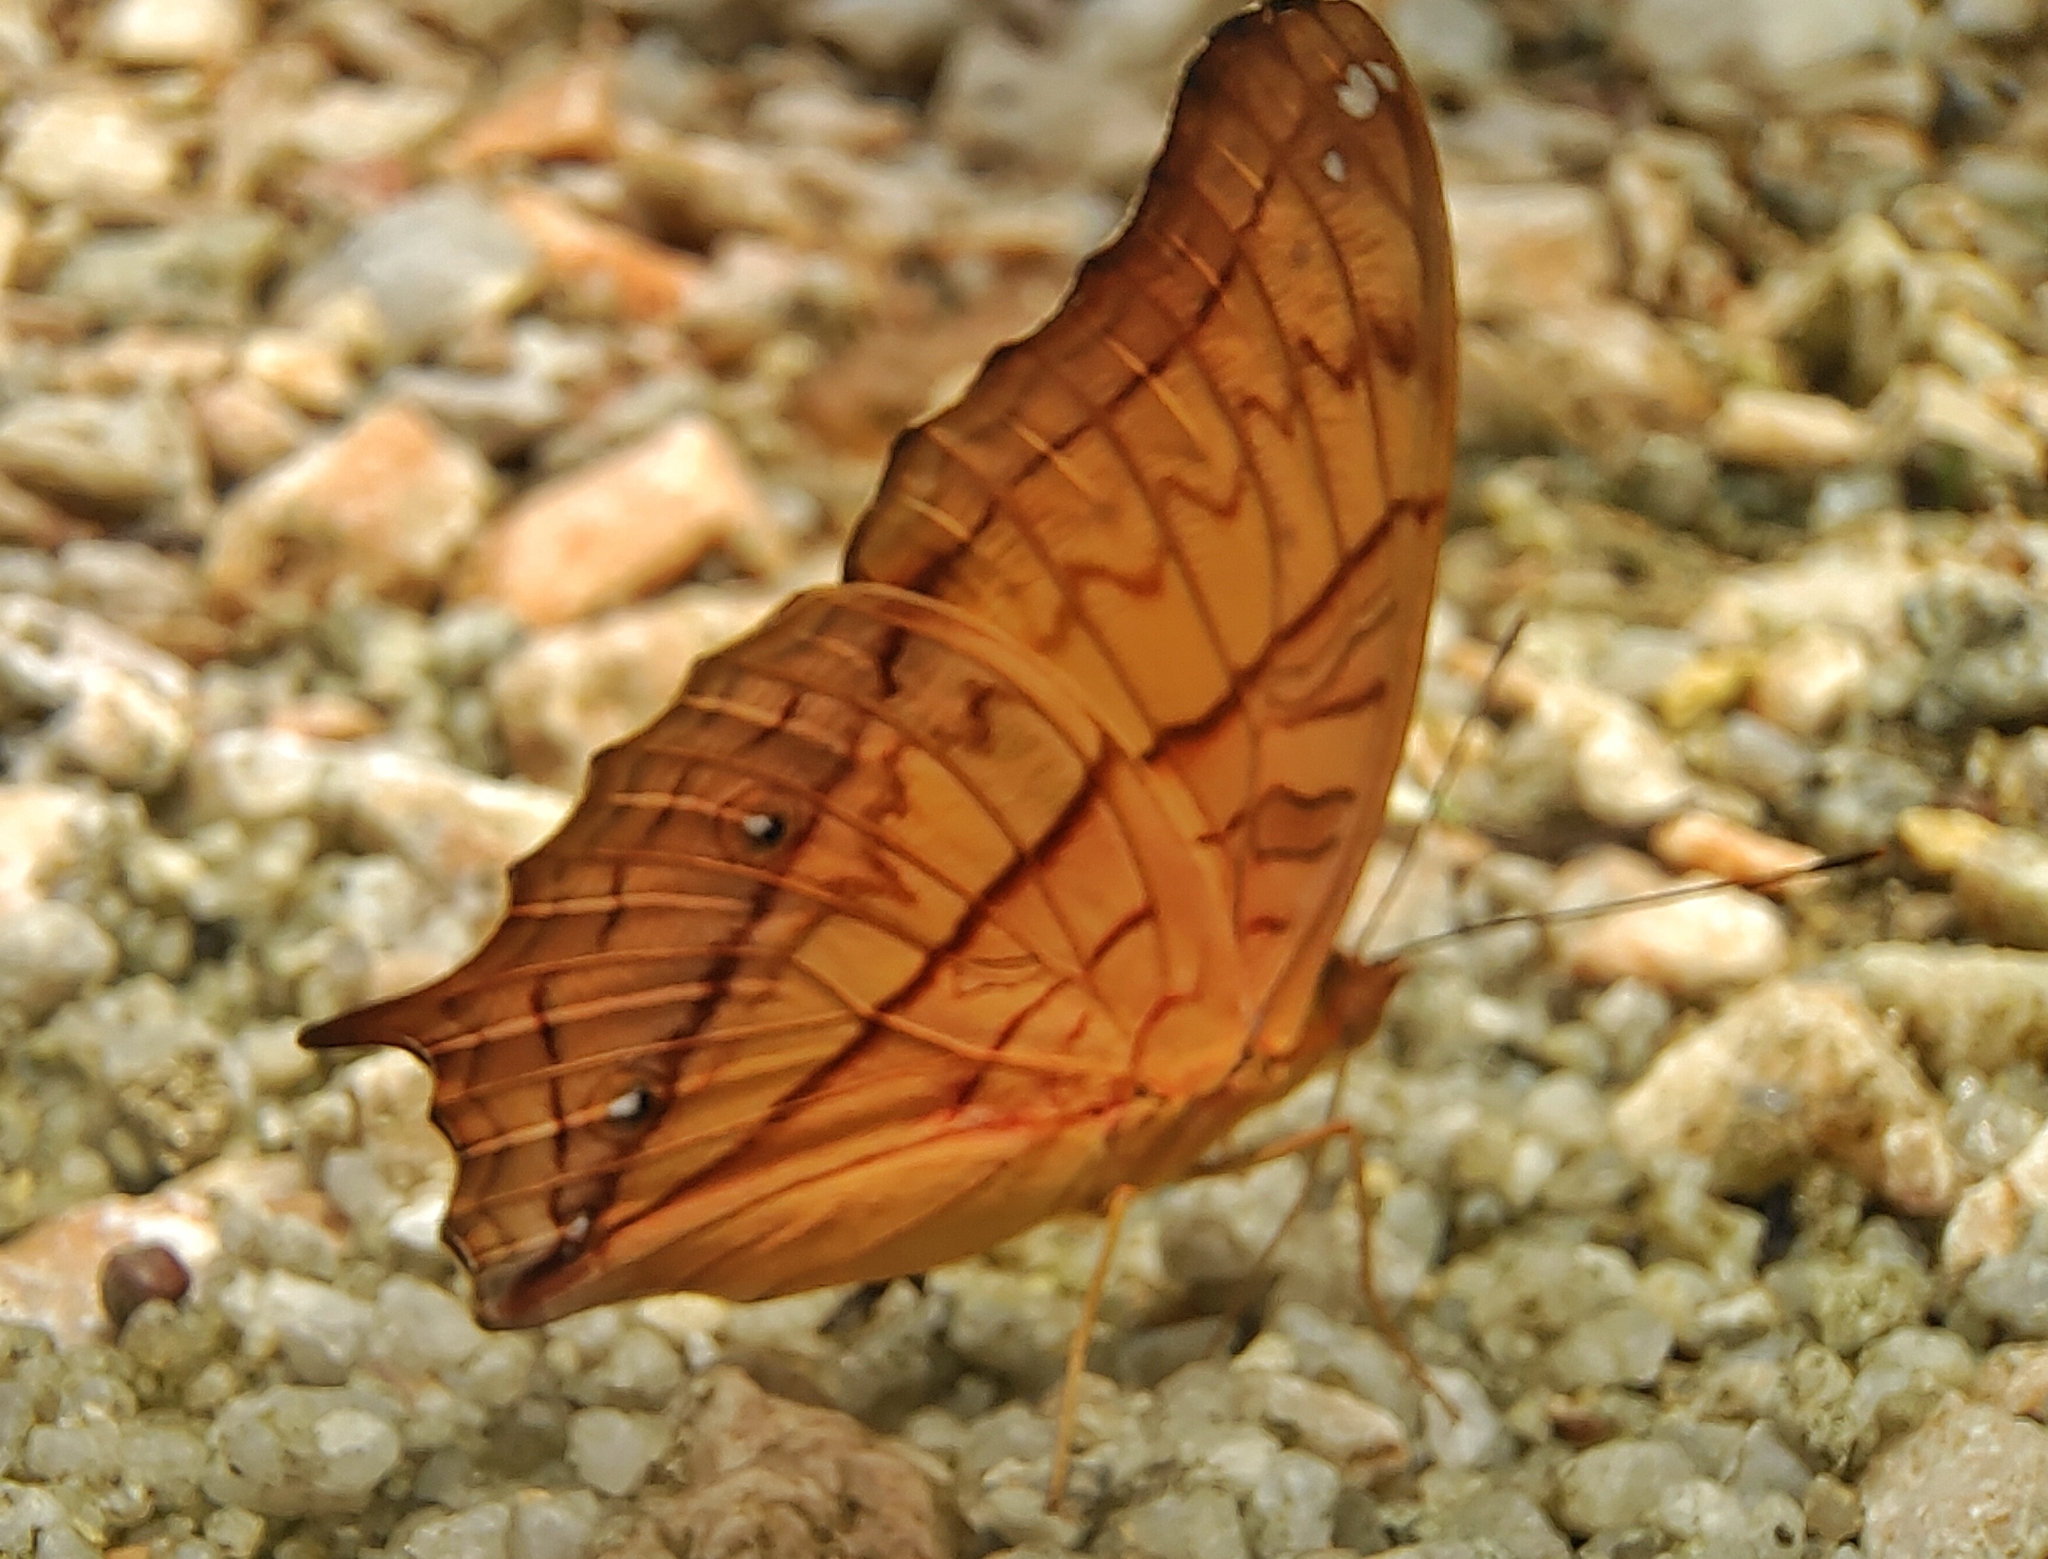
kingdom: Animalia
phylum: Arthropoda
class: Insecta
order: Lepidoptera
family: Nymphalidae
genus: Vindula
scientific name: Vindula deione
